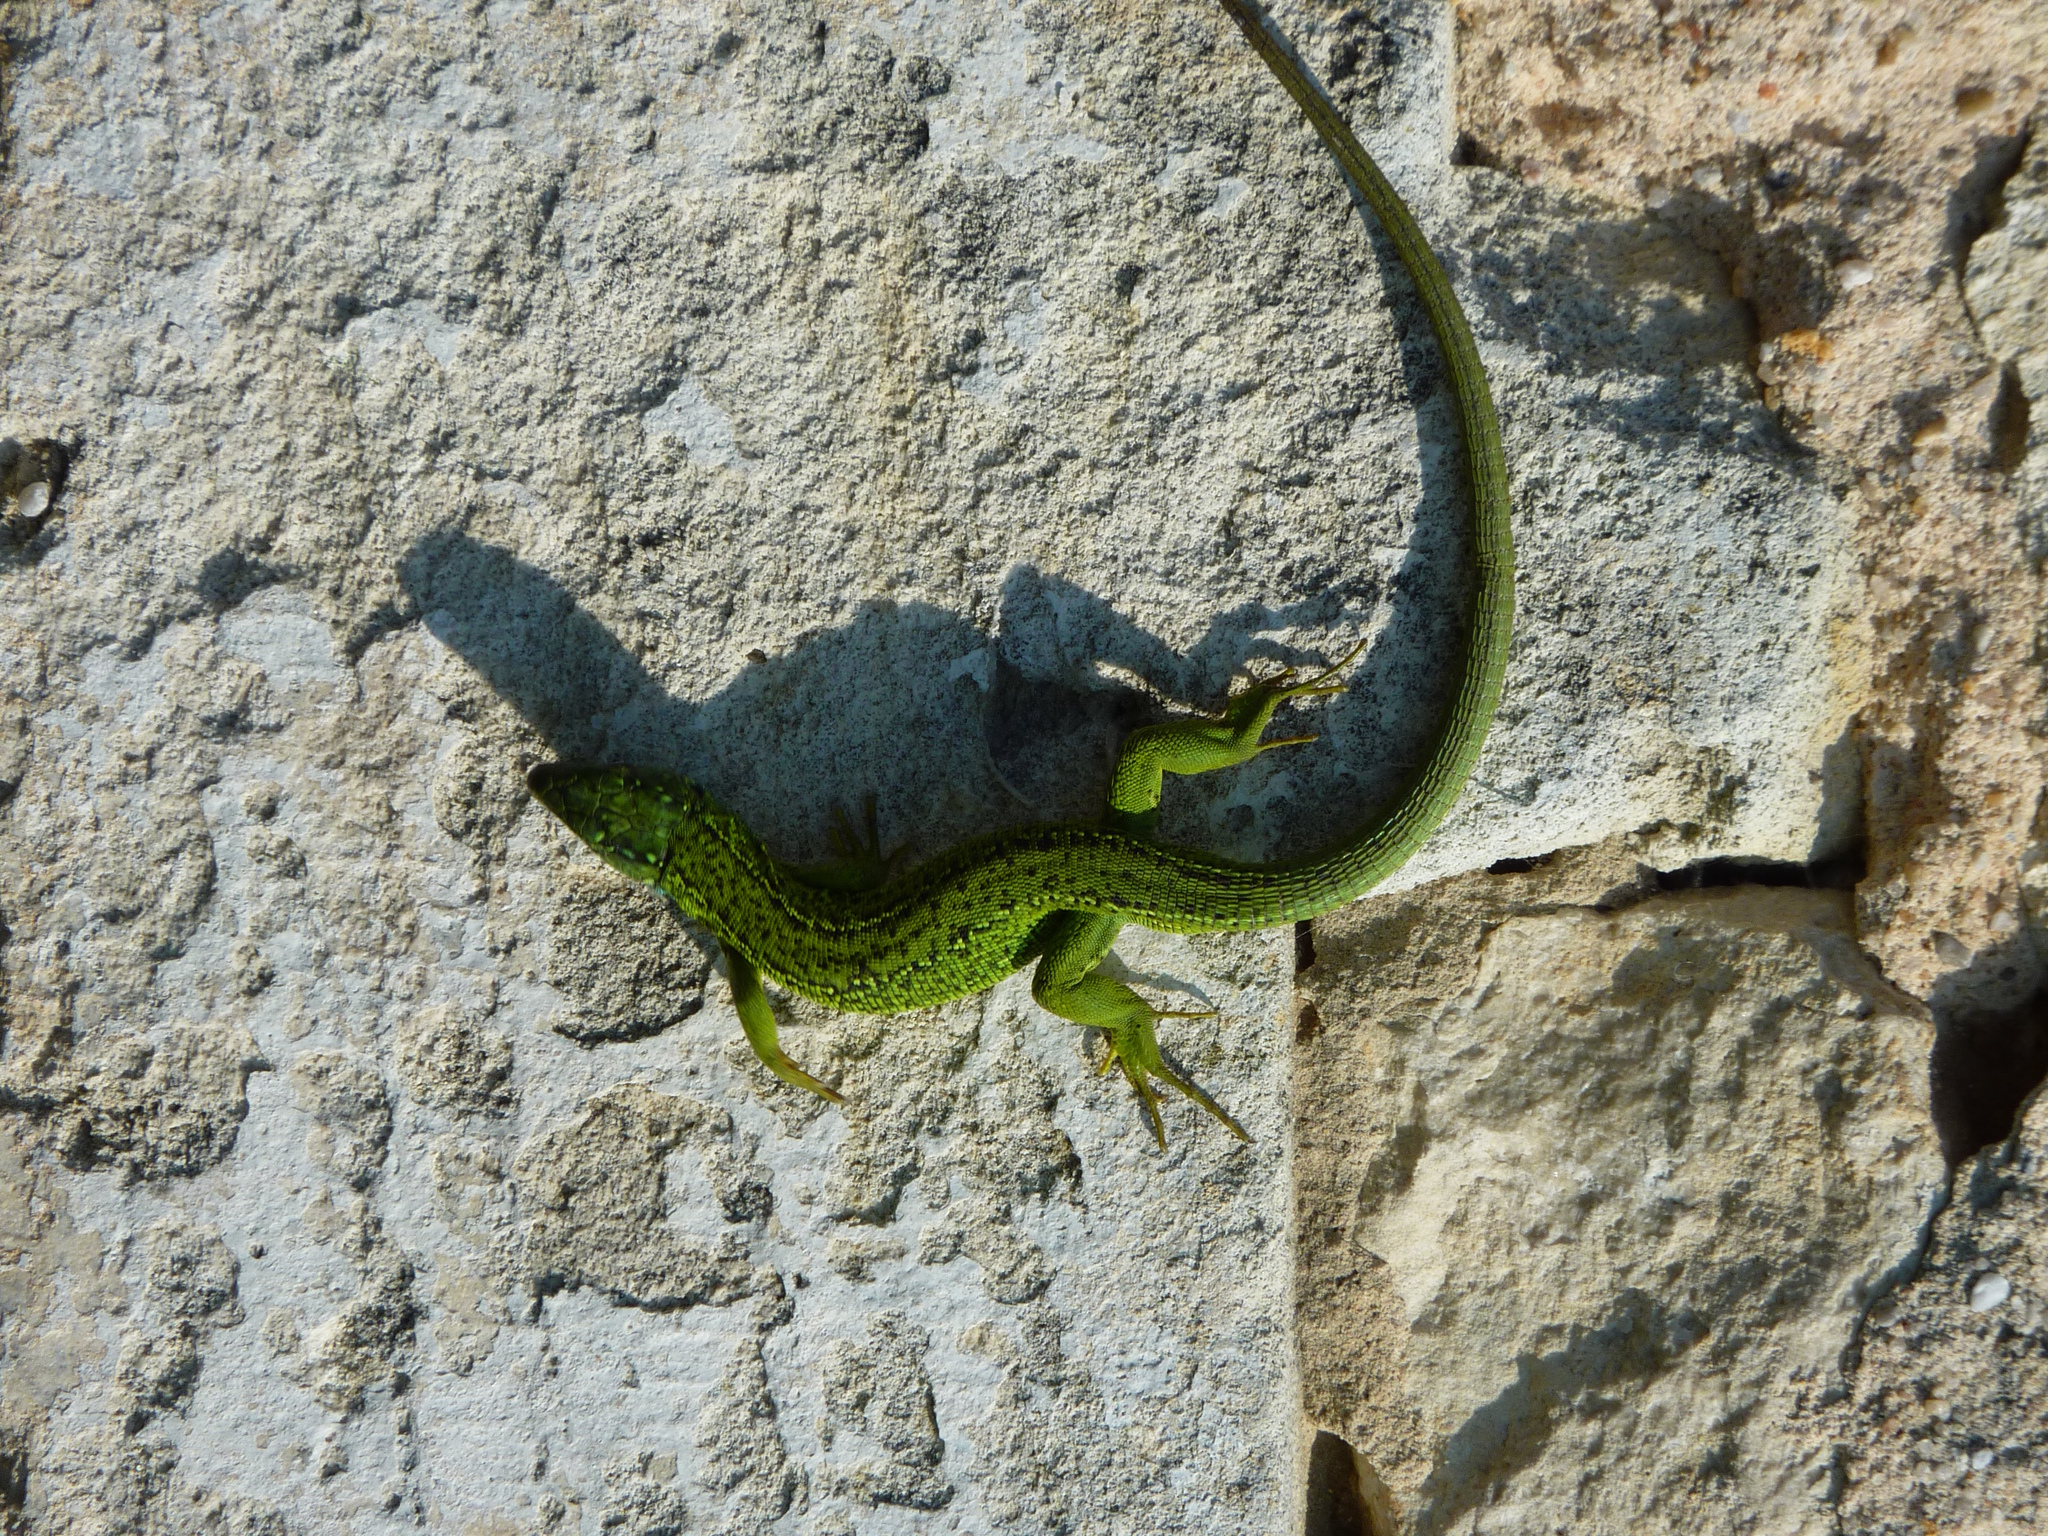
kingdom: Animalia
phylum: Chordata
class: Squamata
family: Lacertidae
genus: Lacerta
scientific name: Lacerta bilineata
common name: Western green lizard
